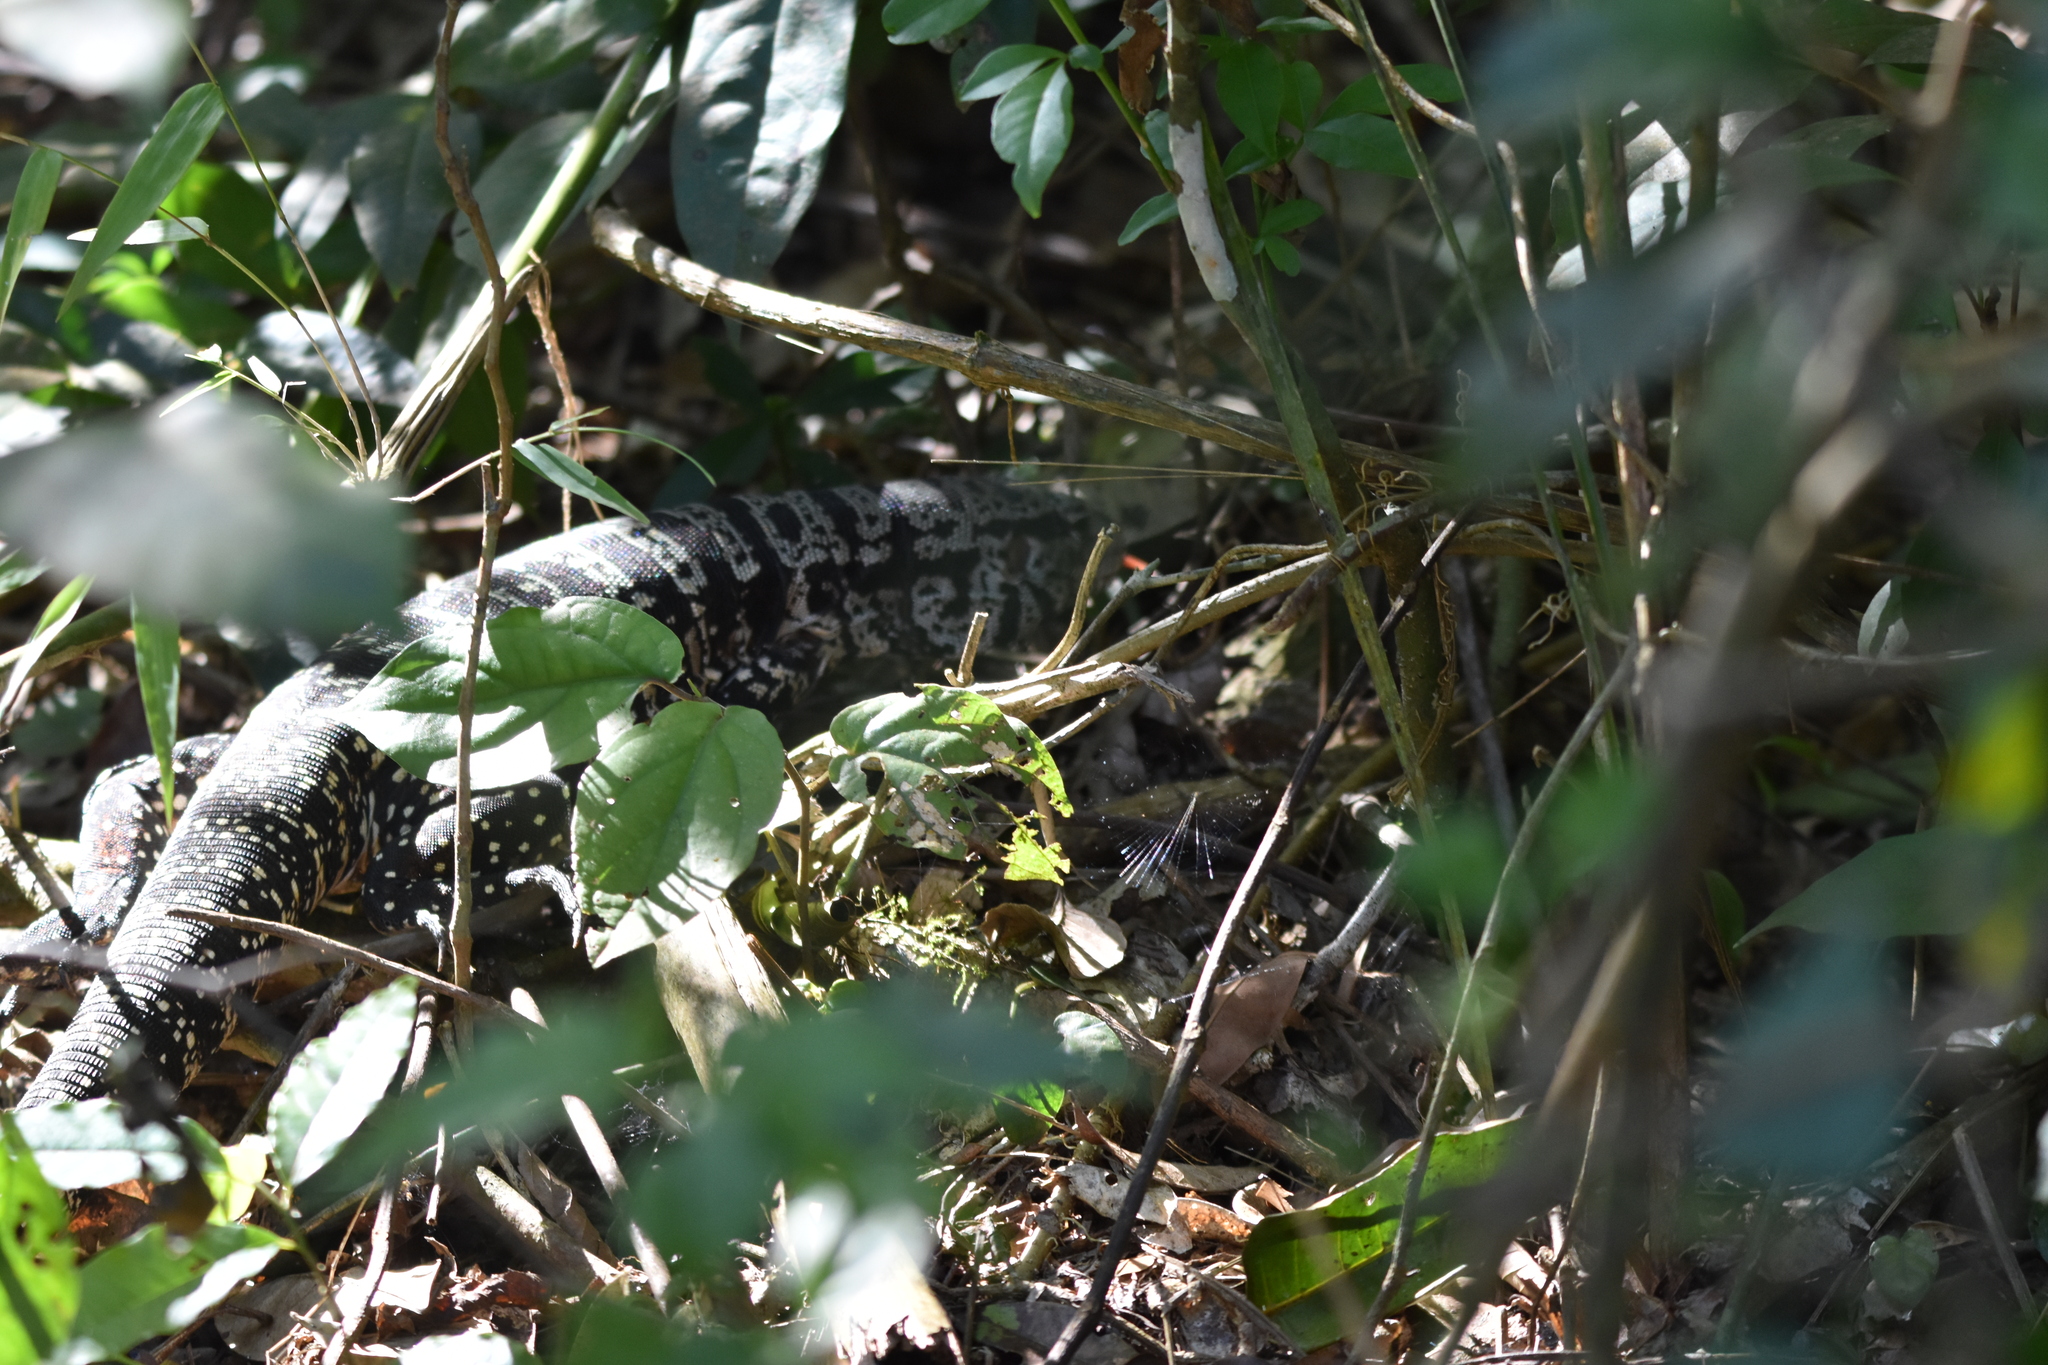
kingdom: Animalia
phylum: Chordata
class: Squamata
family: Teiidae
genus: Salvator
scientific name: Salvator merianae
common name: Argentine black and white tegu
